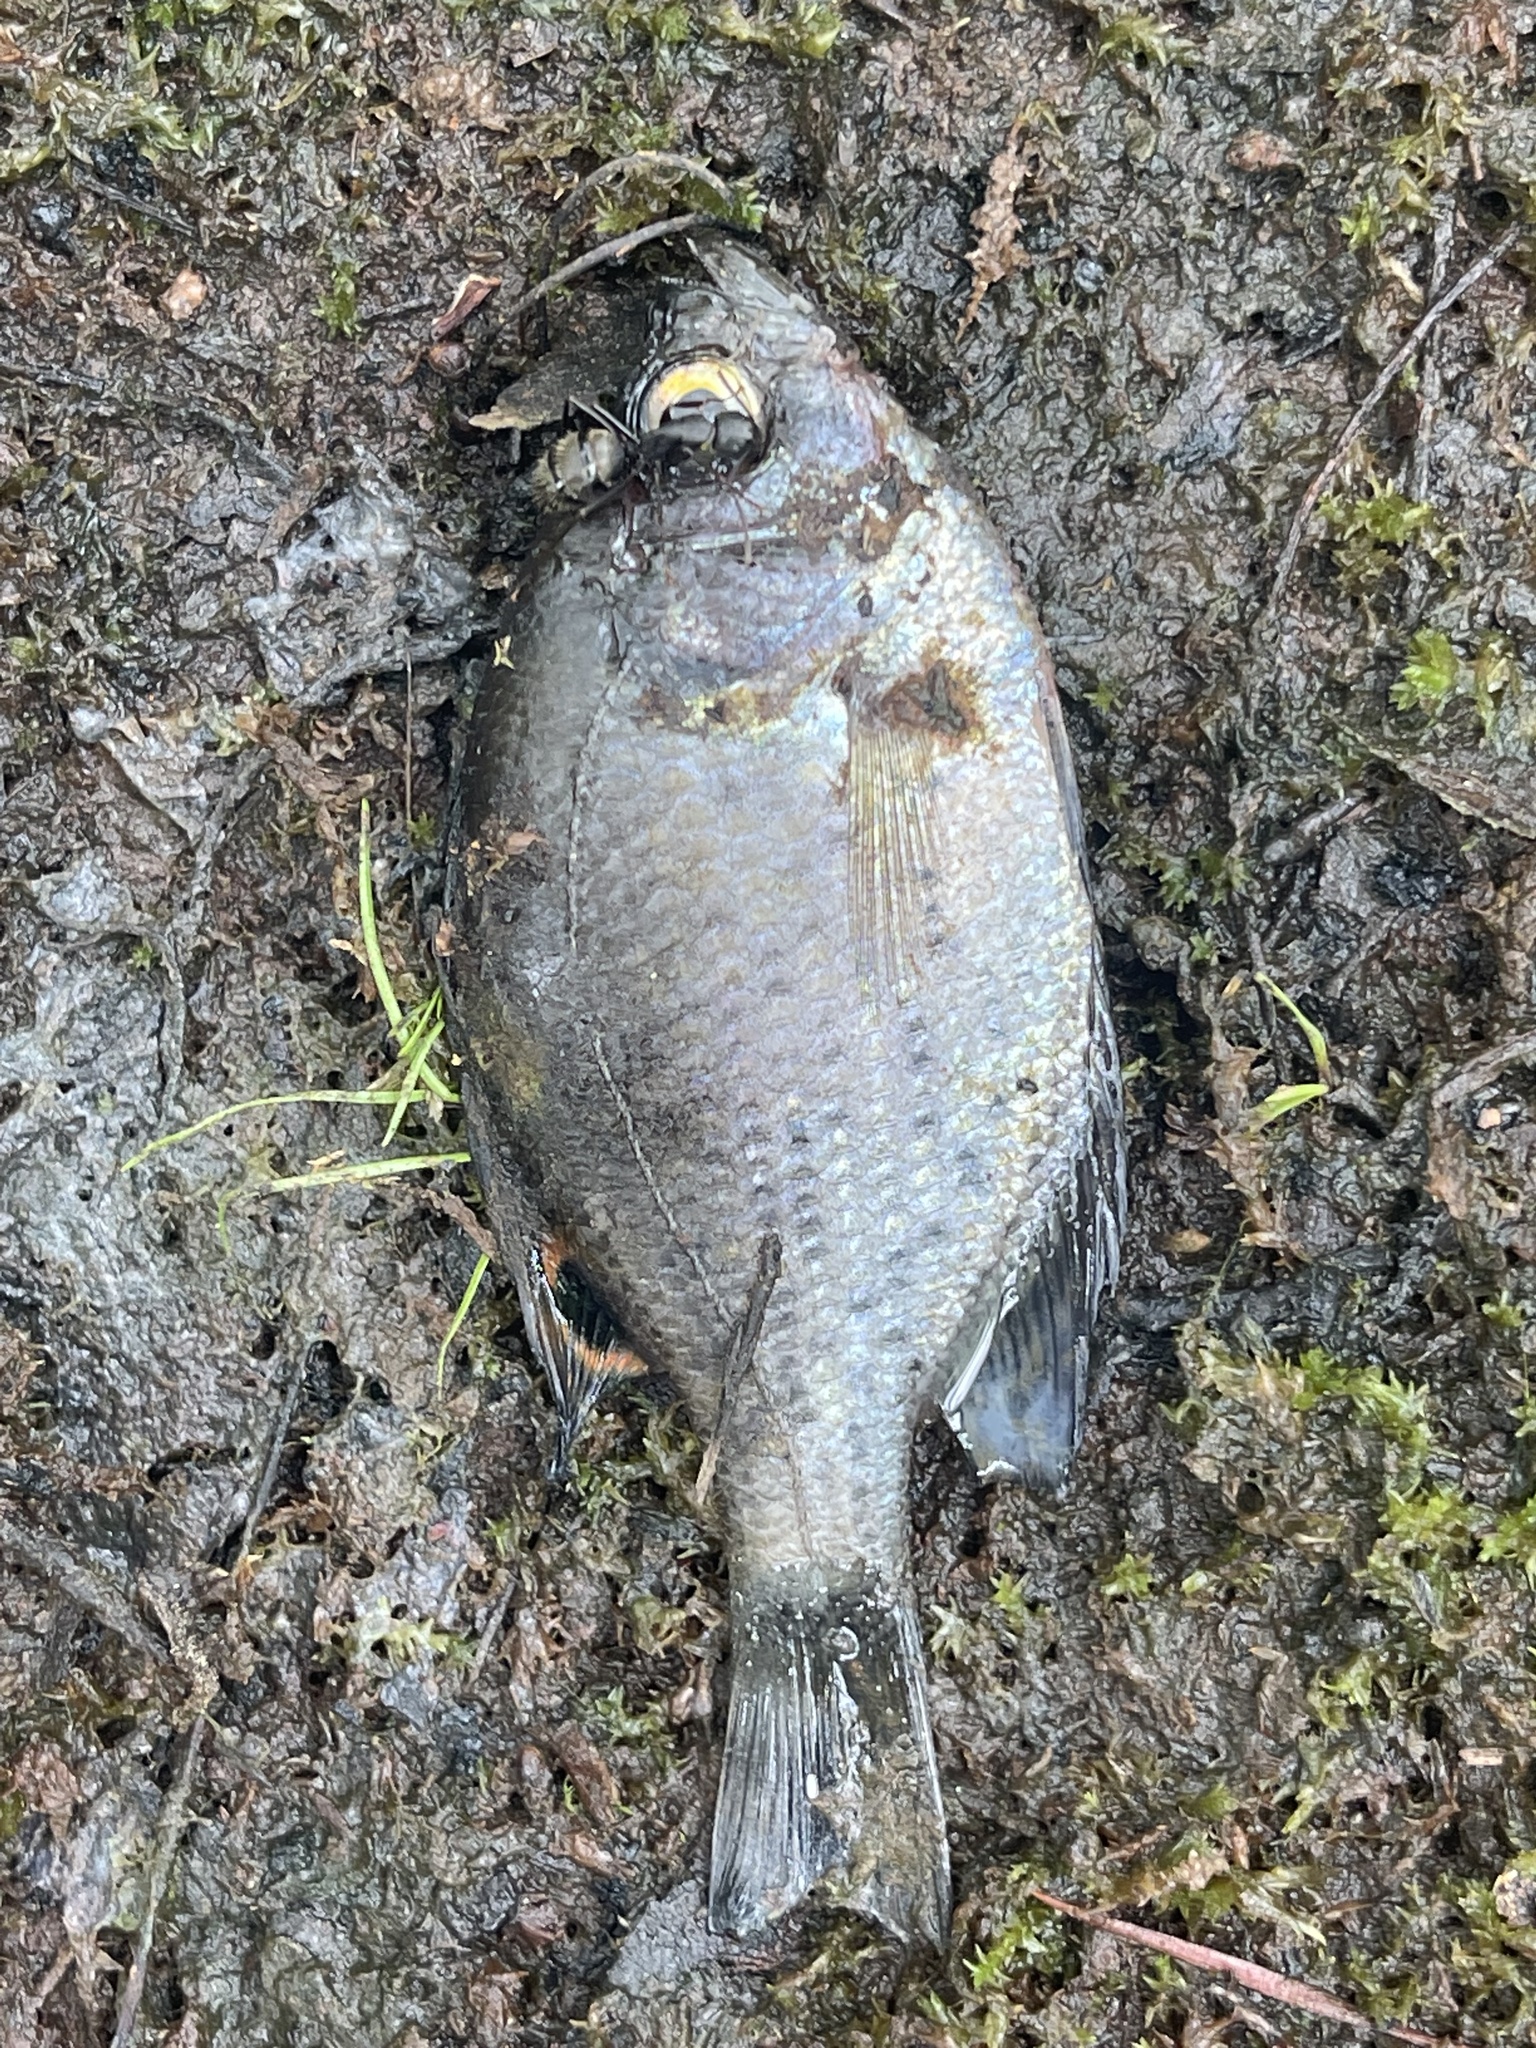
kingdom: Animalia
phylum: Chordata
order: Perciformes
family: Centrarchidae
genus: Pomoxis
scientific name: Pomoxis nigromaculatus
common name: Black crappie
